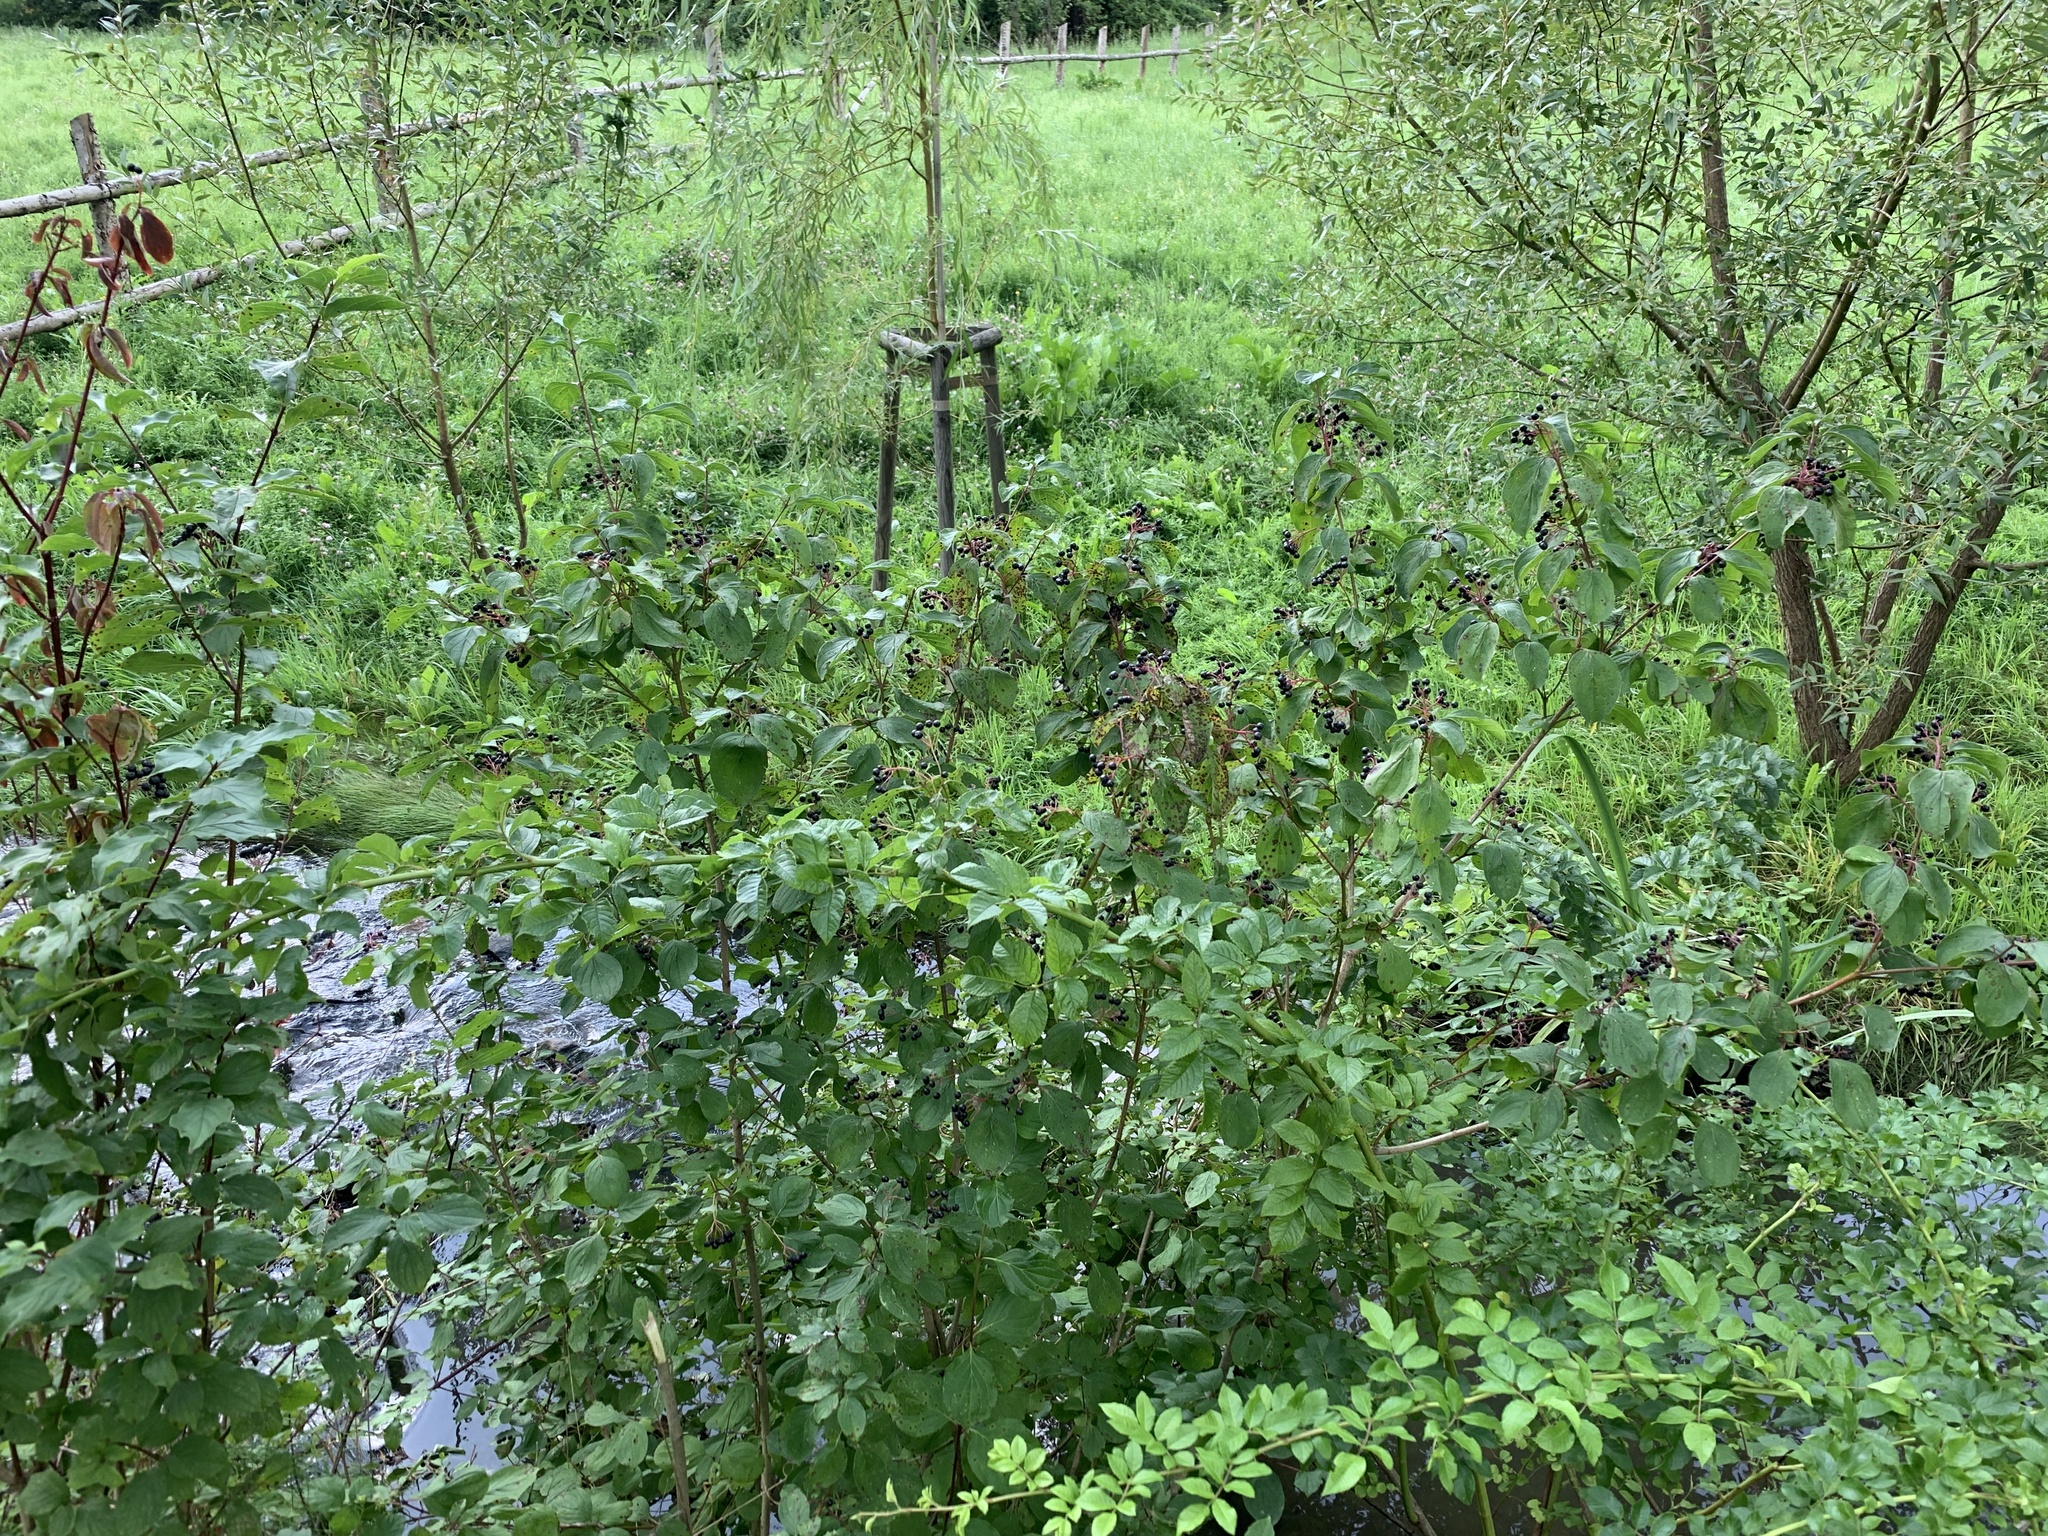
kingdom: Plantae
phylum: Tracheophyta
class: Magnoliopsida
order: Cornales
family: Cornaceae
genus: Cornus
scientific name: Cornus sanguinea
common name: Dogwood
